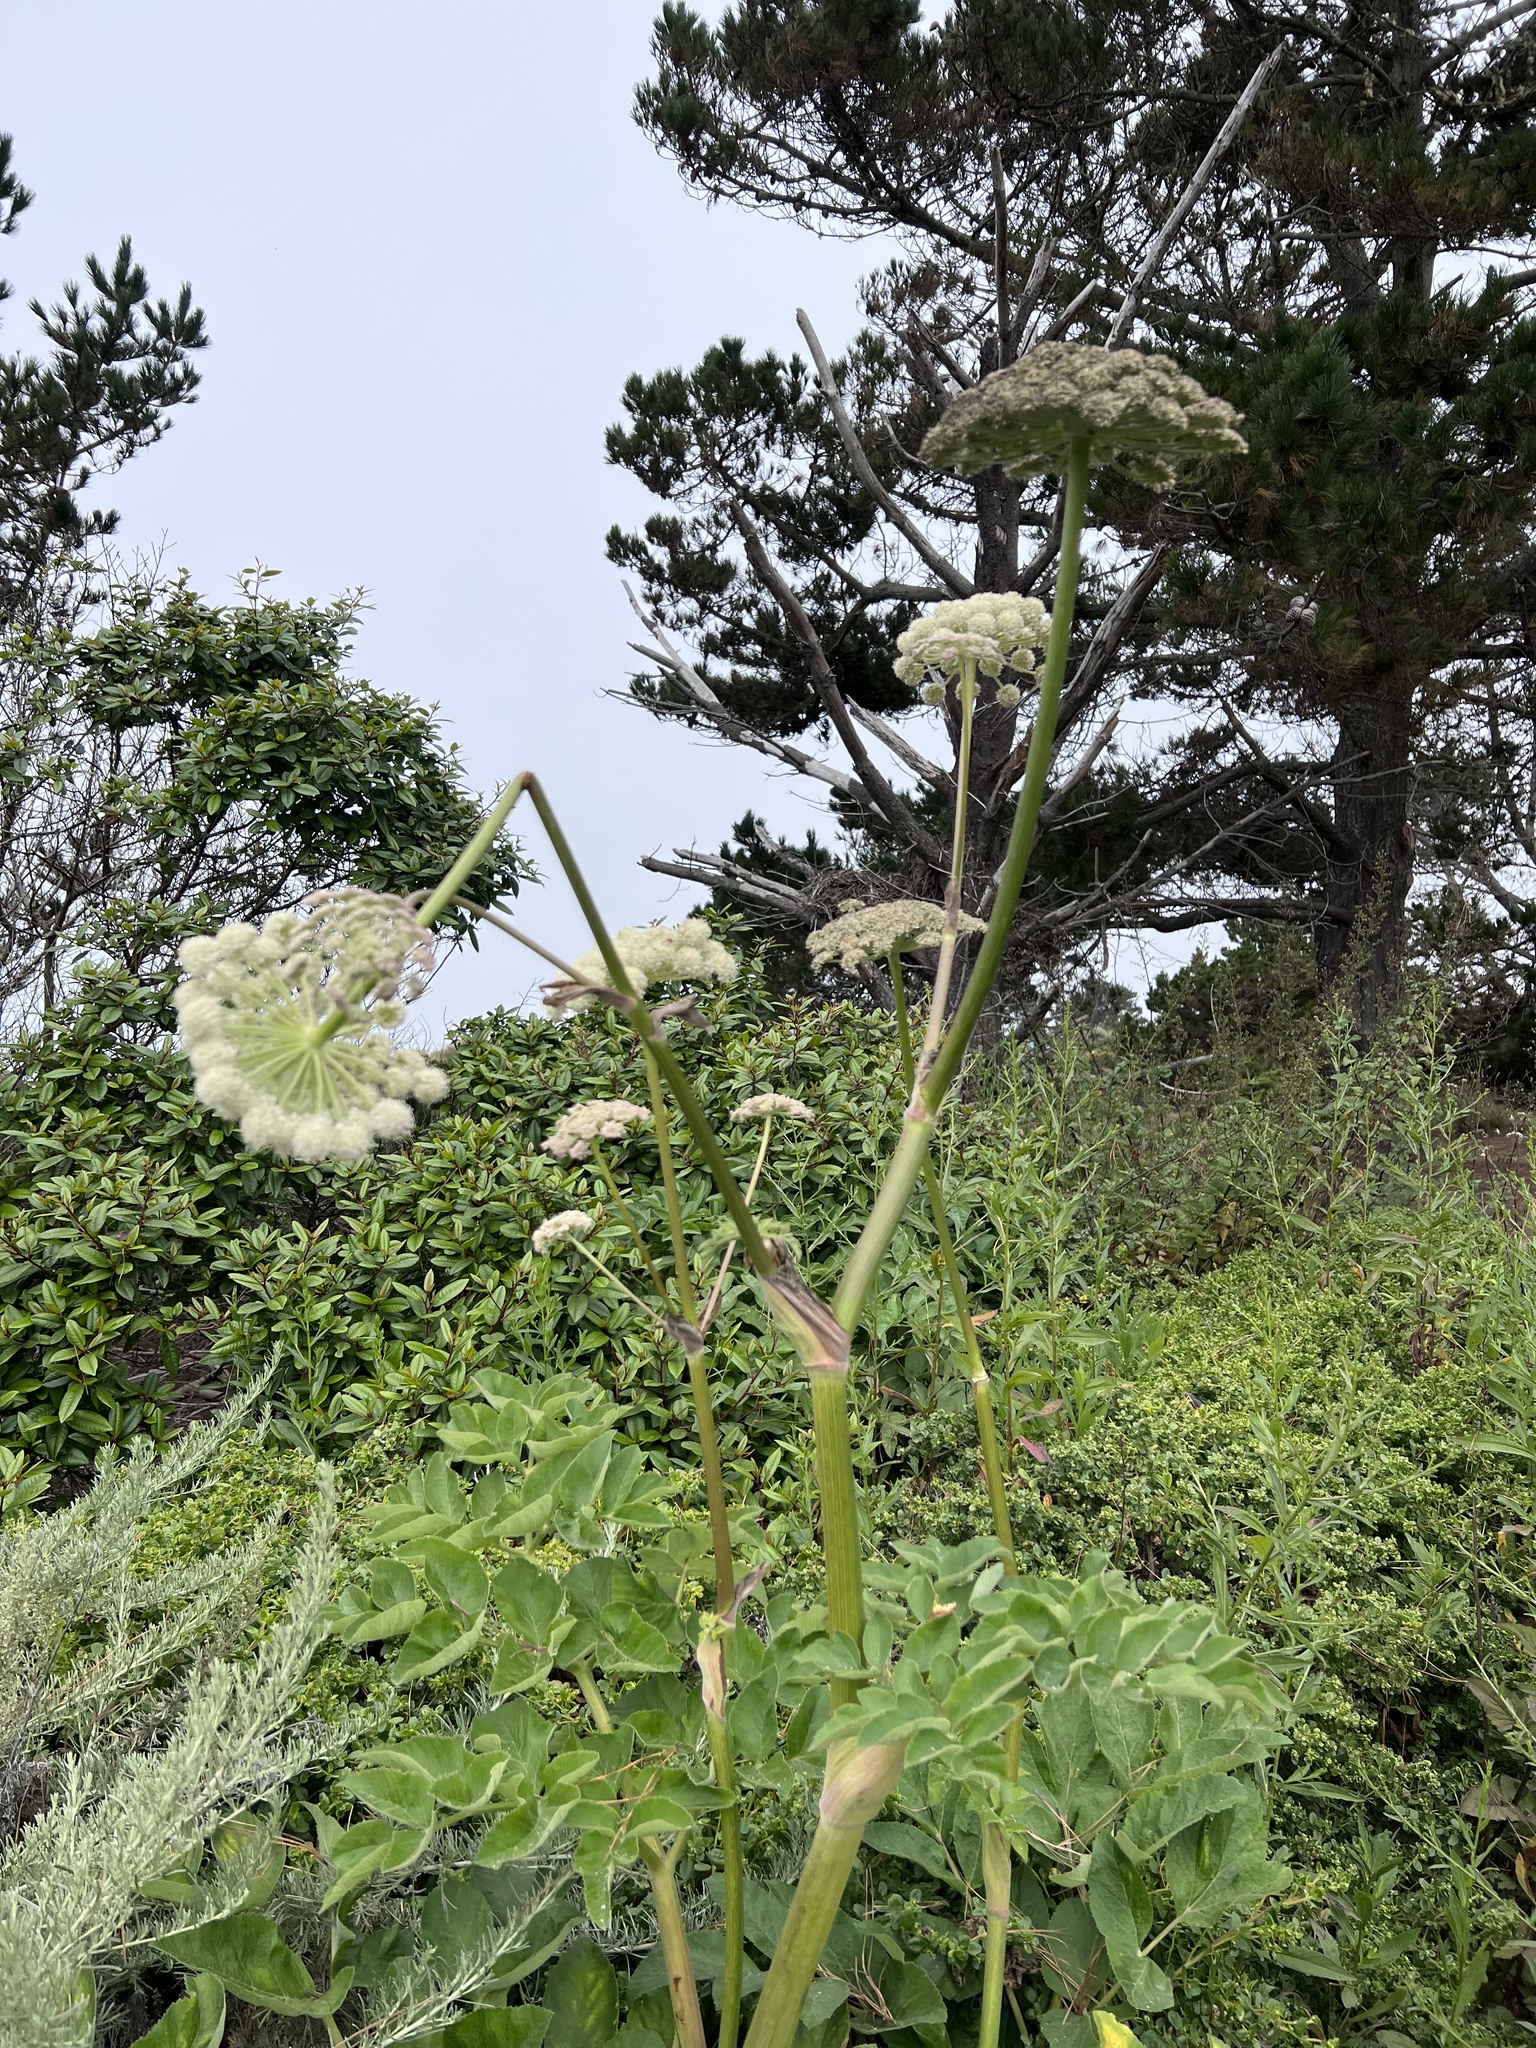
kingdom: Plantae
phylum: Tracheophyta
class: Magnoliopsida
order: Apiales
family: Apiaceae
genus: Angelica
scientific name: Angelica hendersonii
